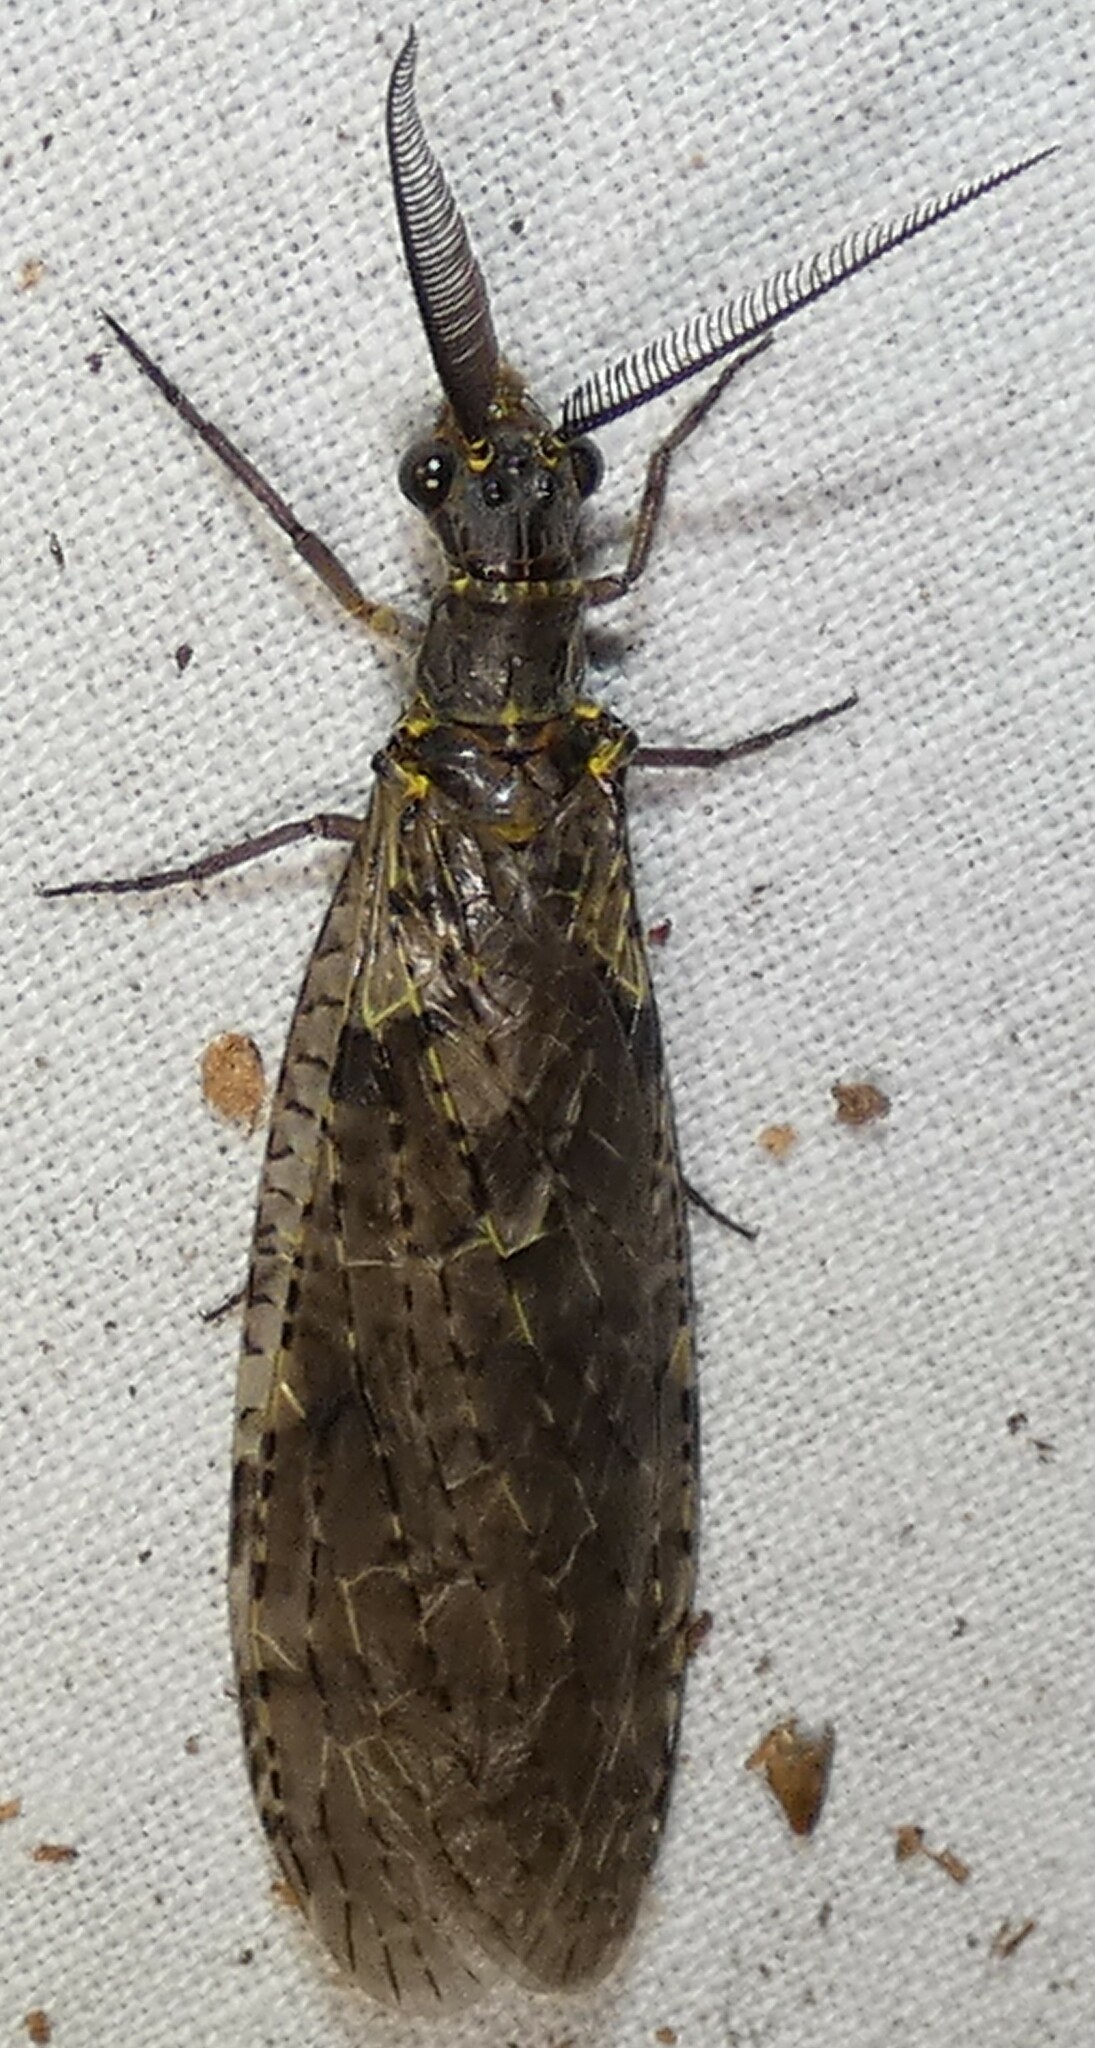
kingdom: Animalia
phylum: Arthropoda
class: Insecta
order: Megaloptera
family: Corydalidae
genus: Chauliodes
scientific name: Chauliodes rastricornis
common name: Spring fishfly
